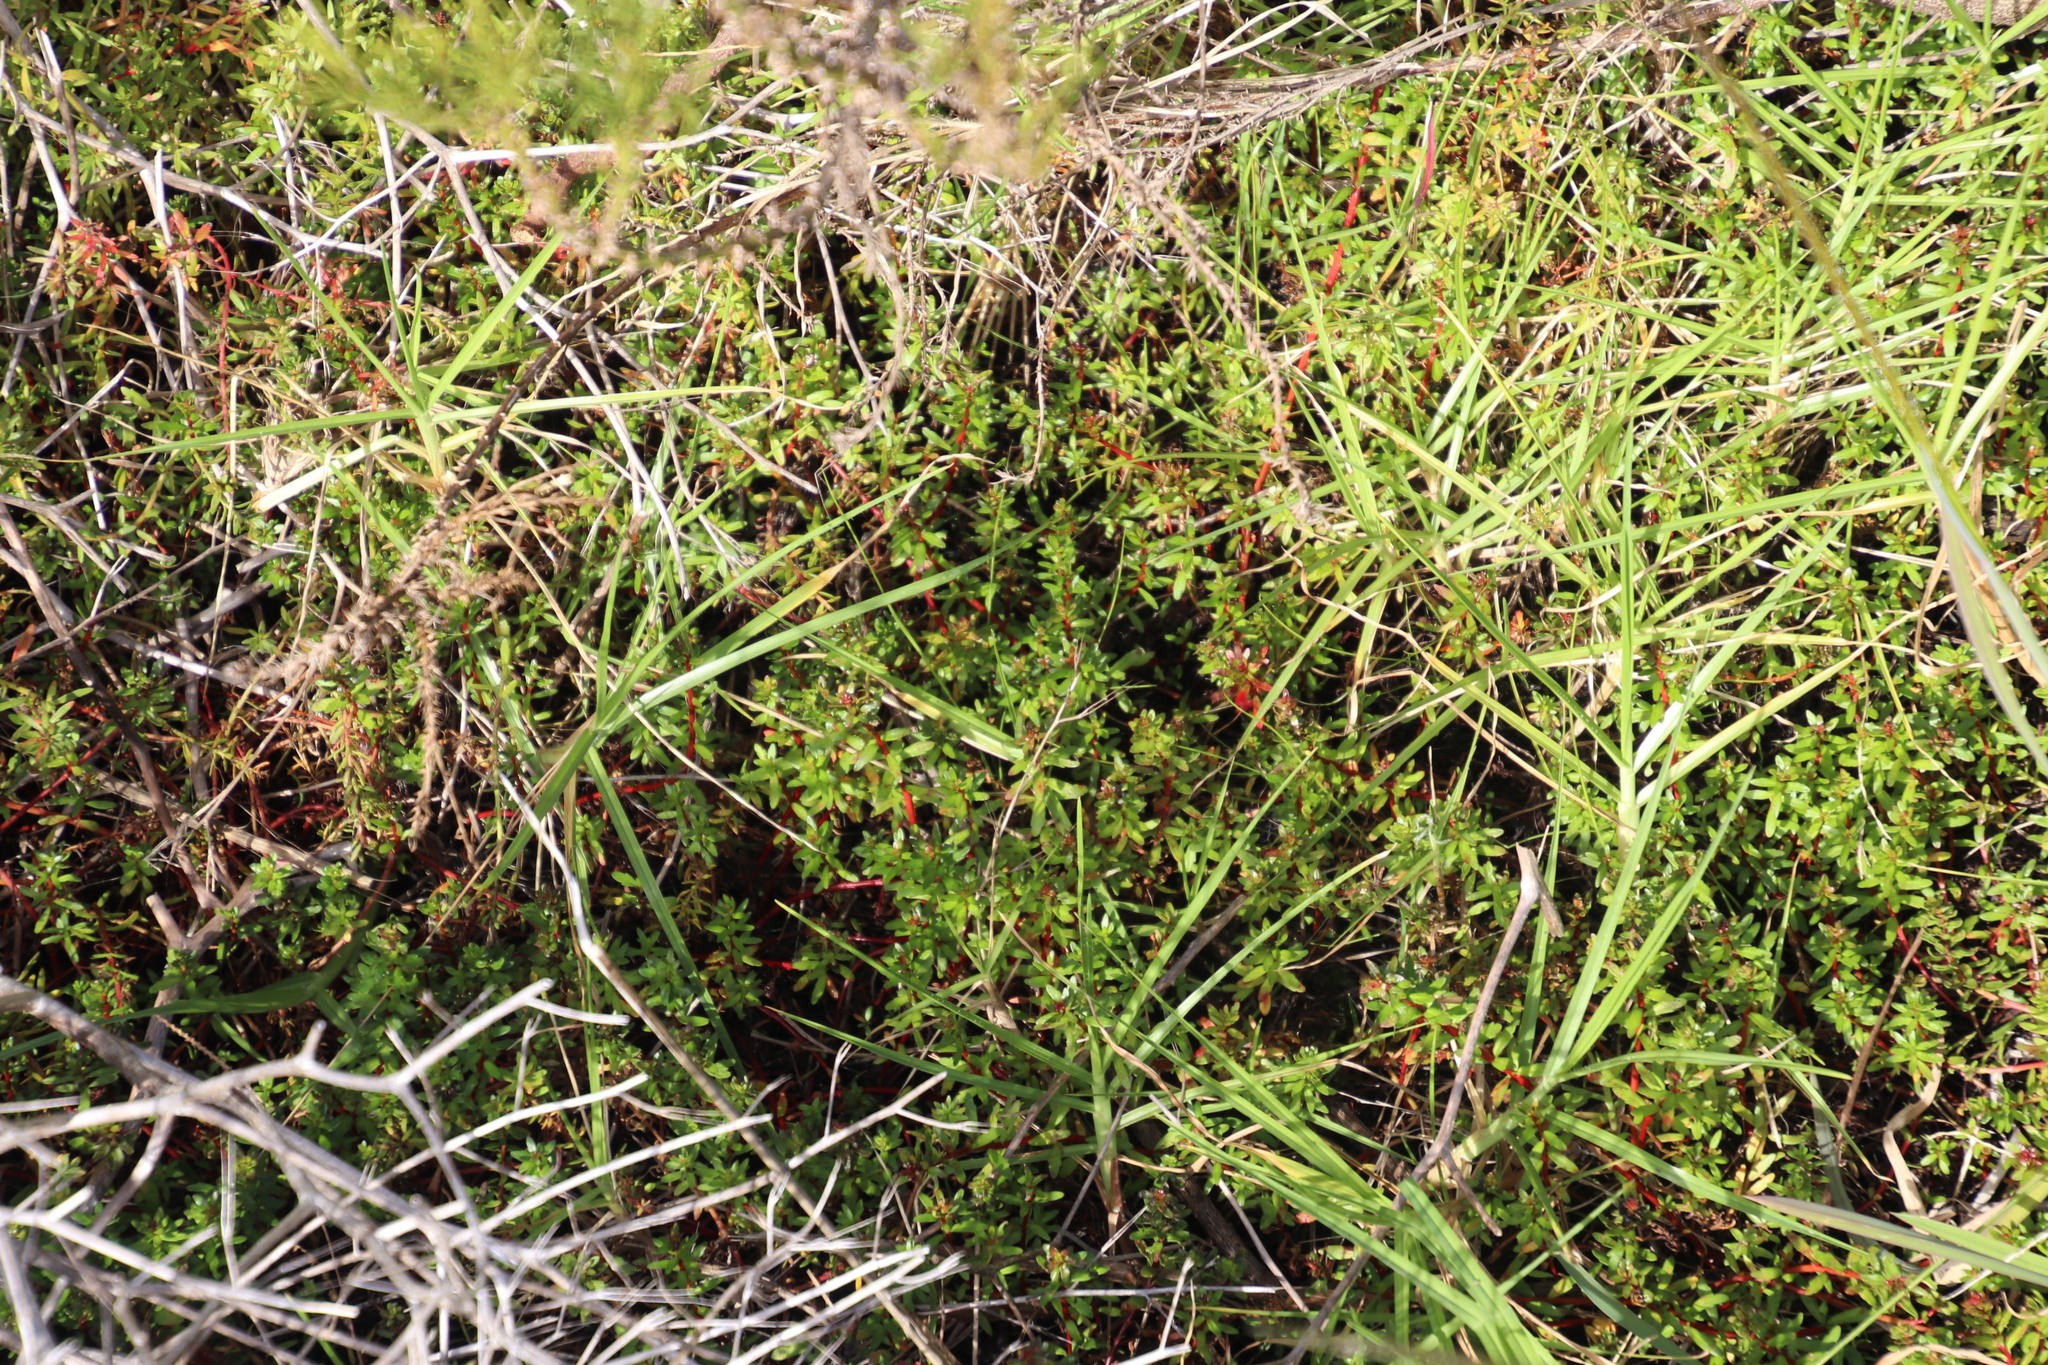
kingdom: Plantae
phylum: Tracheophyta
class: Magnoliopsida
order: Saxifragales
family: Haloragaceae
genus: Laurembergia
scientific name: Laurembergia repens
